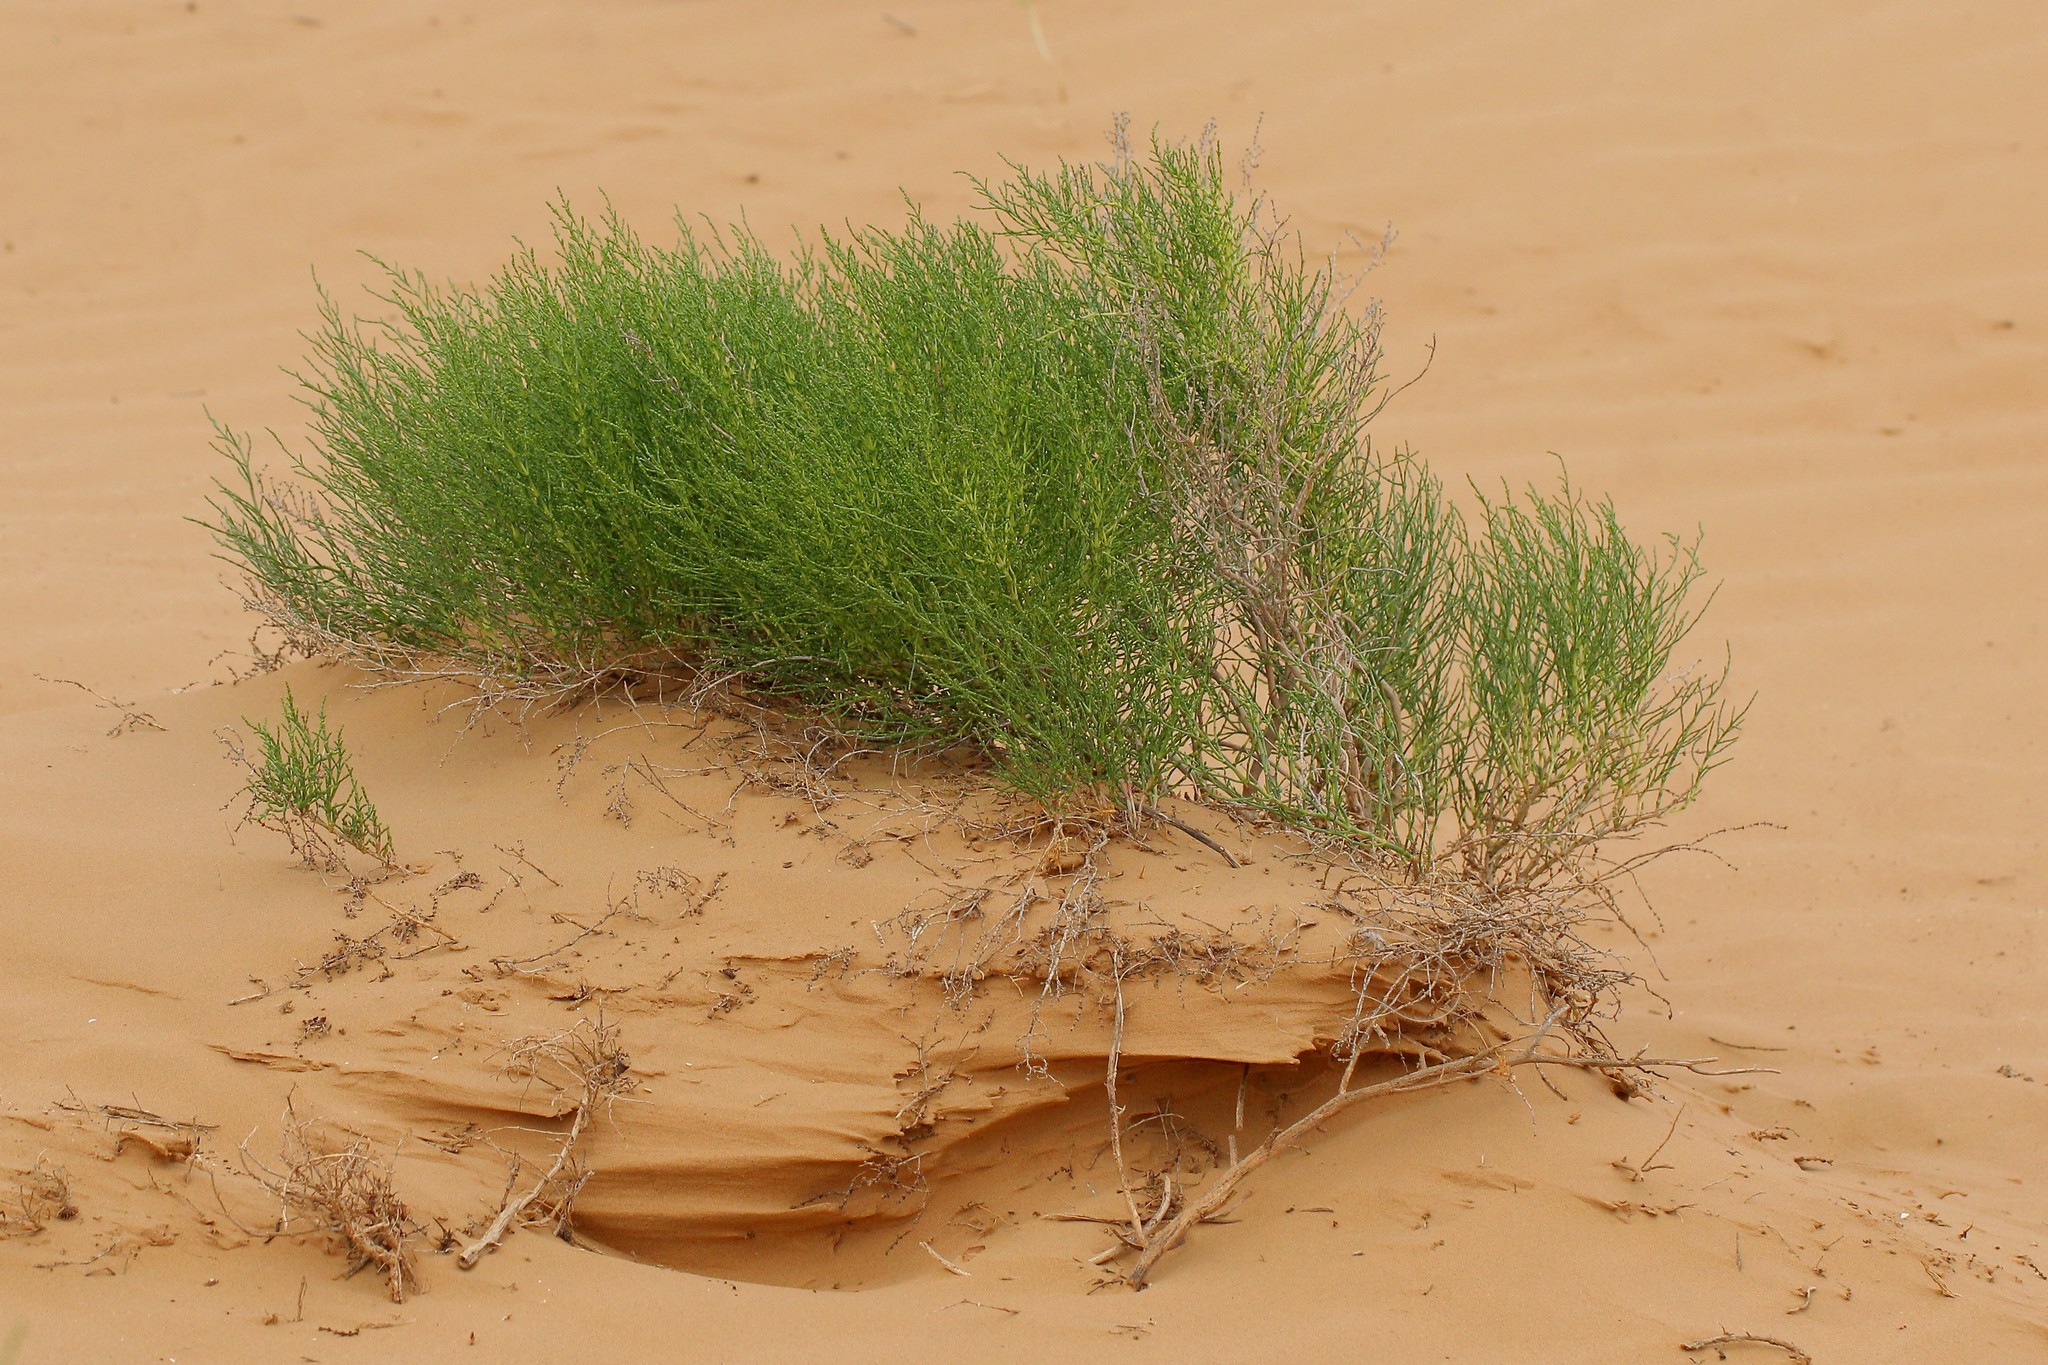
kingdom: Plantae
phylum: Tracheophyta
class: Magnoliopsida
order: Caryophyllales
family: Amaranthaceae
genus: Anabasis
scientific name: Anabasis aphylla
